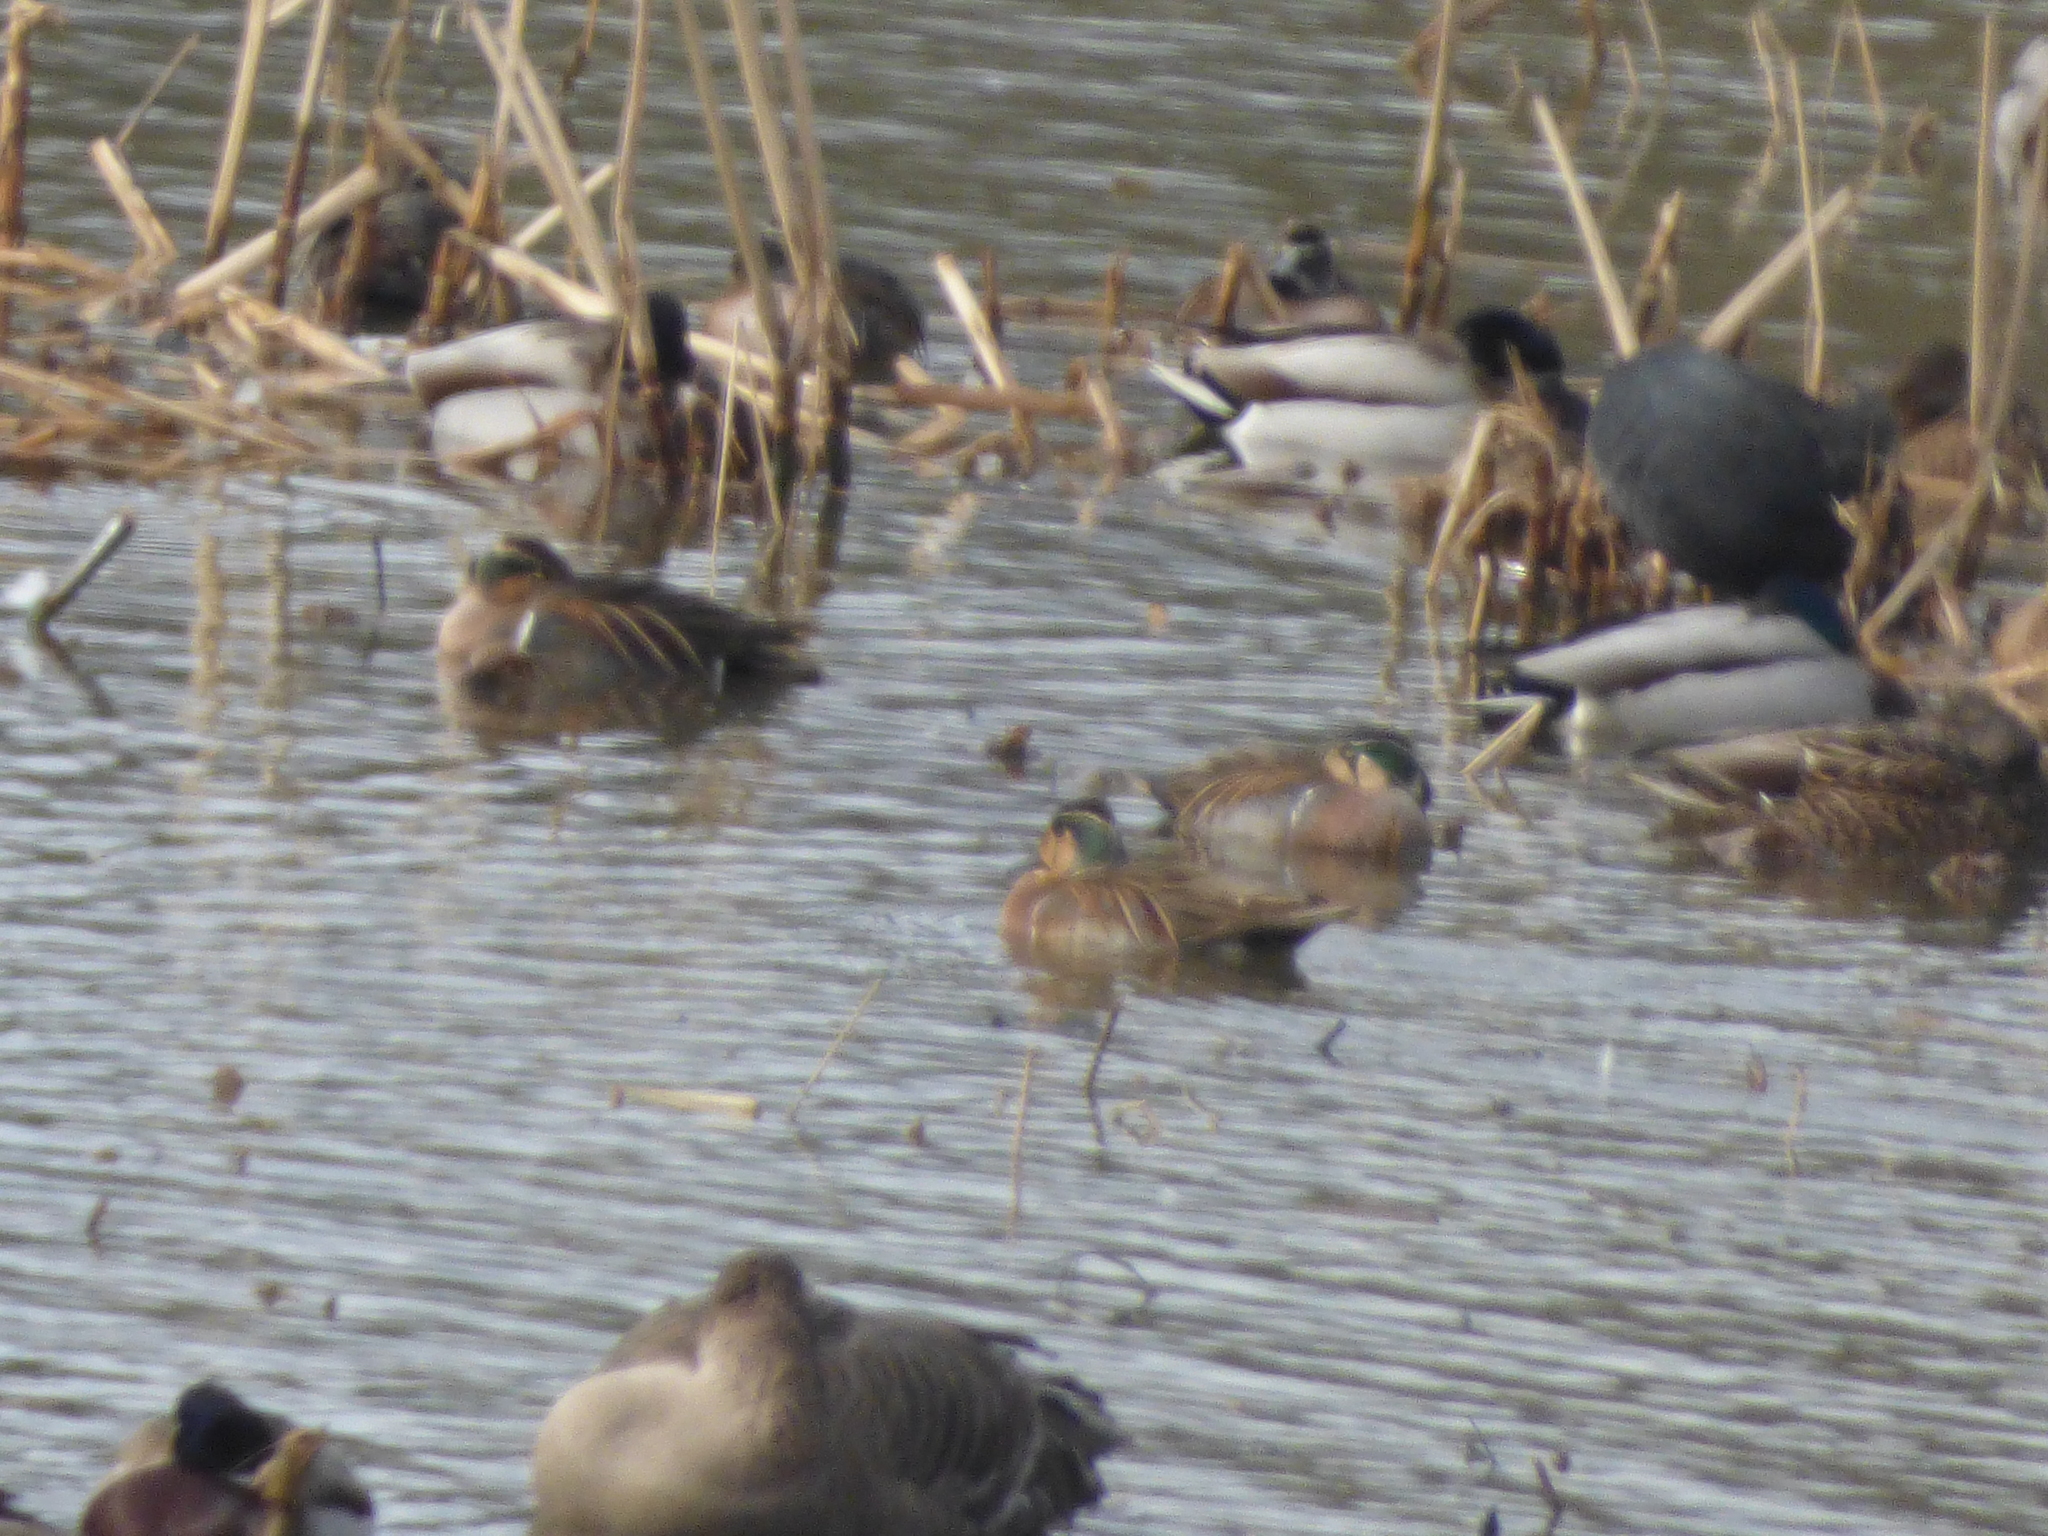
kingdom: Animalia
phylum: Chordata
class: Aves
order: Anseriformes
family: Anatidae
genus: Sibirionetta
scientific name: Sibirionetta formosa
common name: Baikal teal
